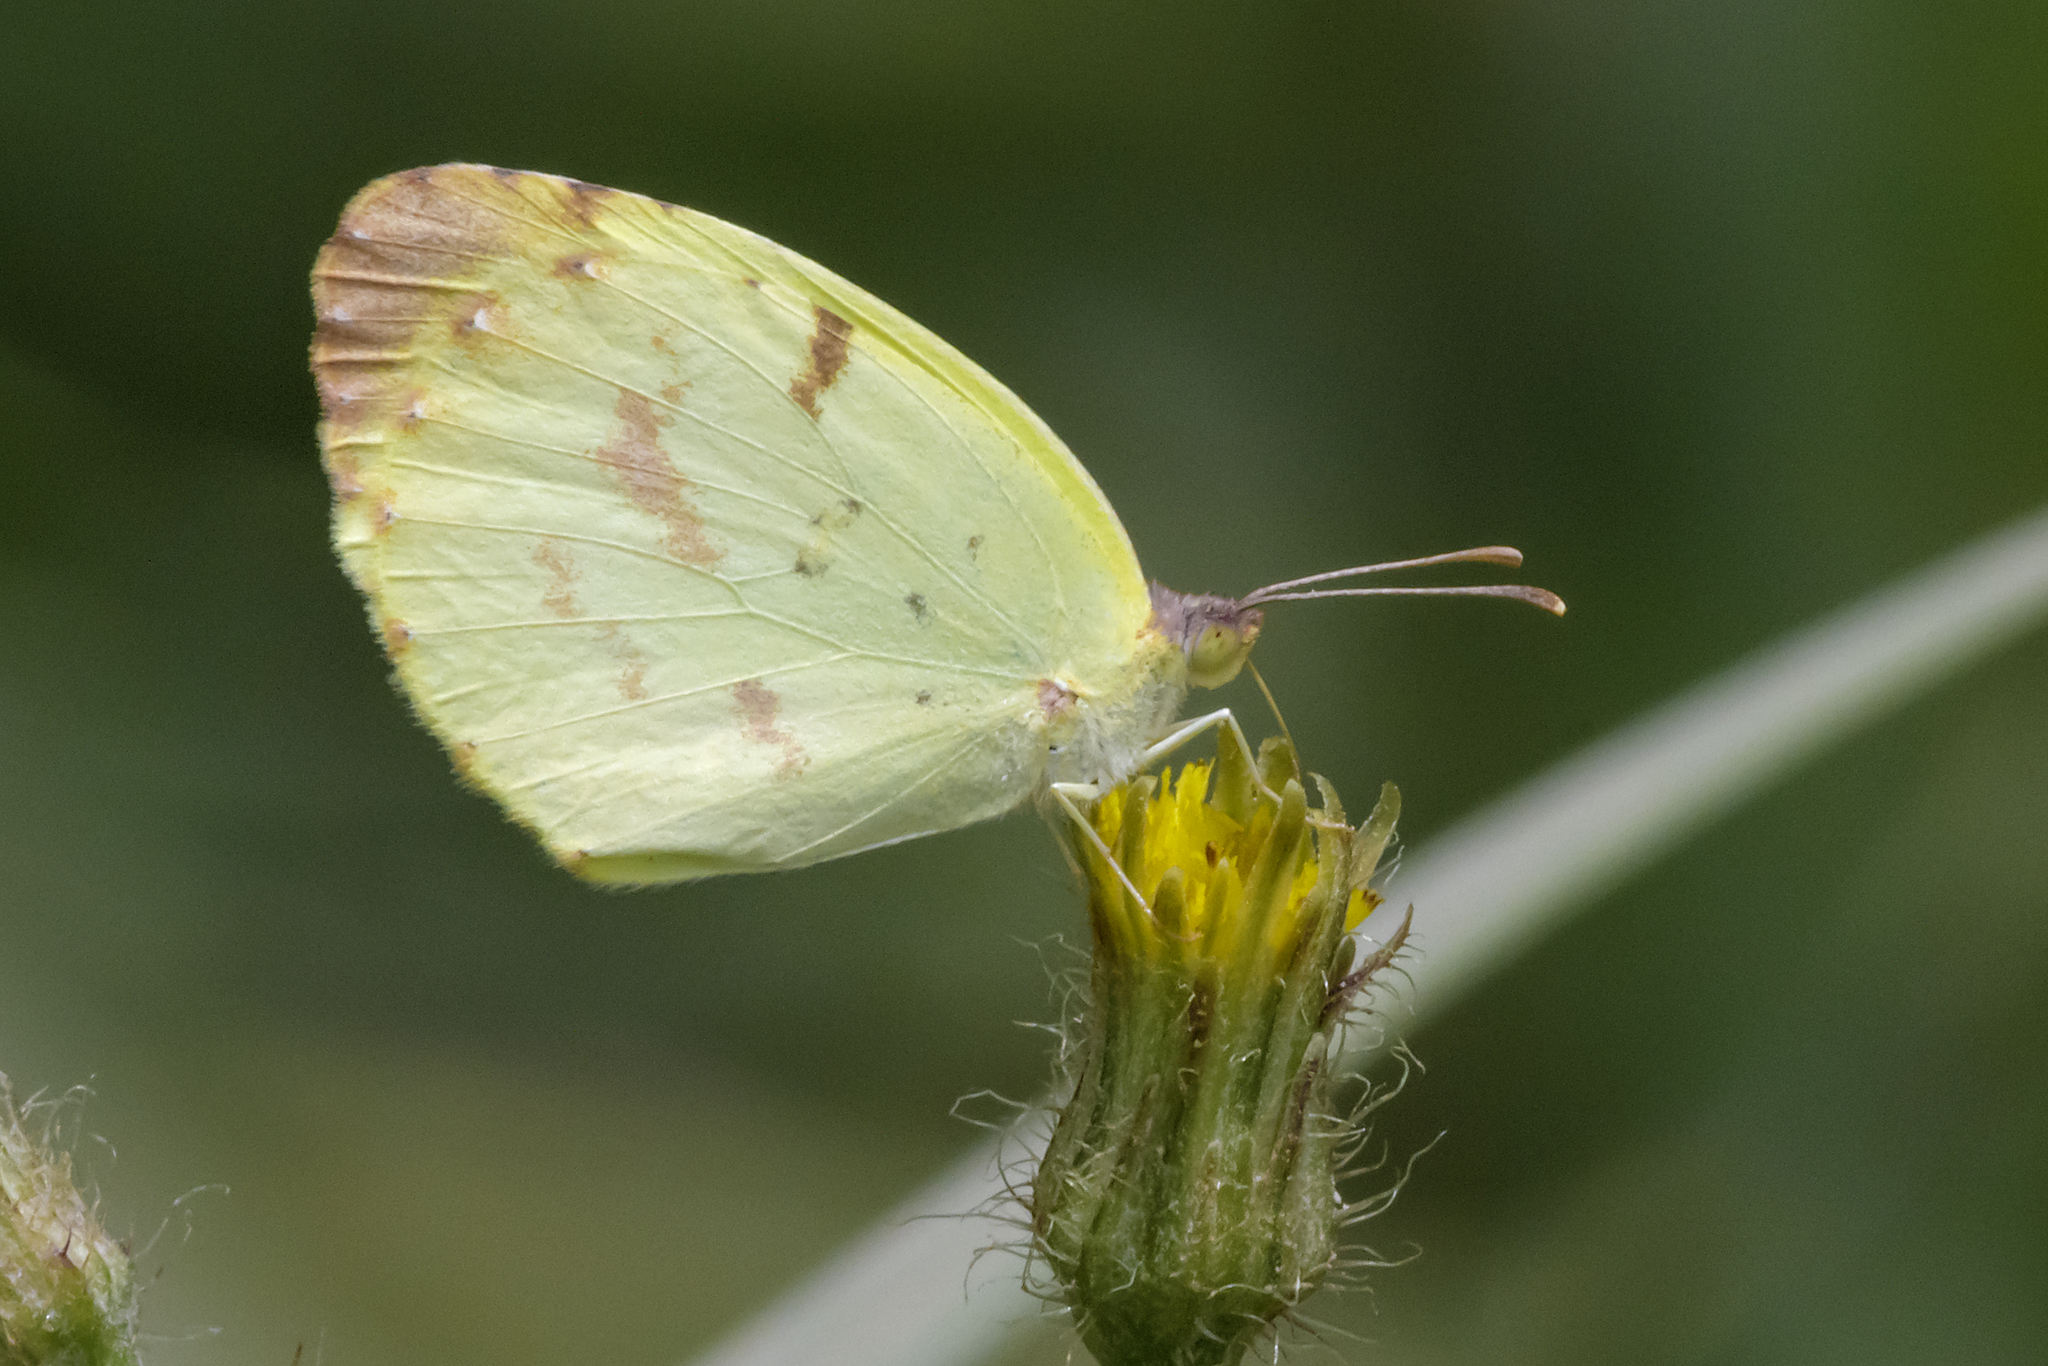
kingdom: Animalia
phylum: Arthropoda
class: Insecta
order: Lepidoptera
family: Pieridae
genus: Teriocolias
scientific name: Teriocolias
